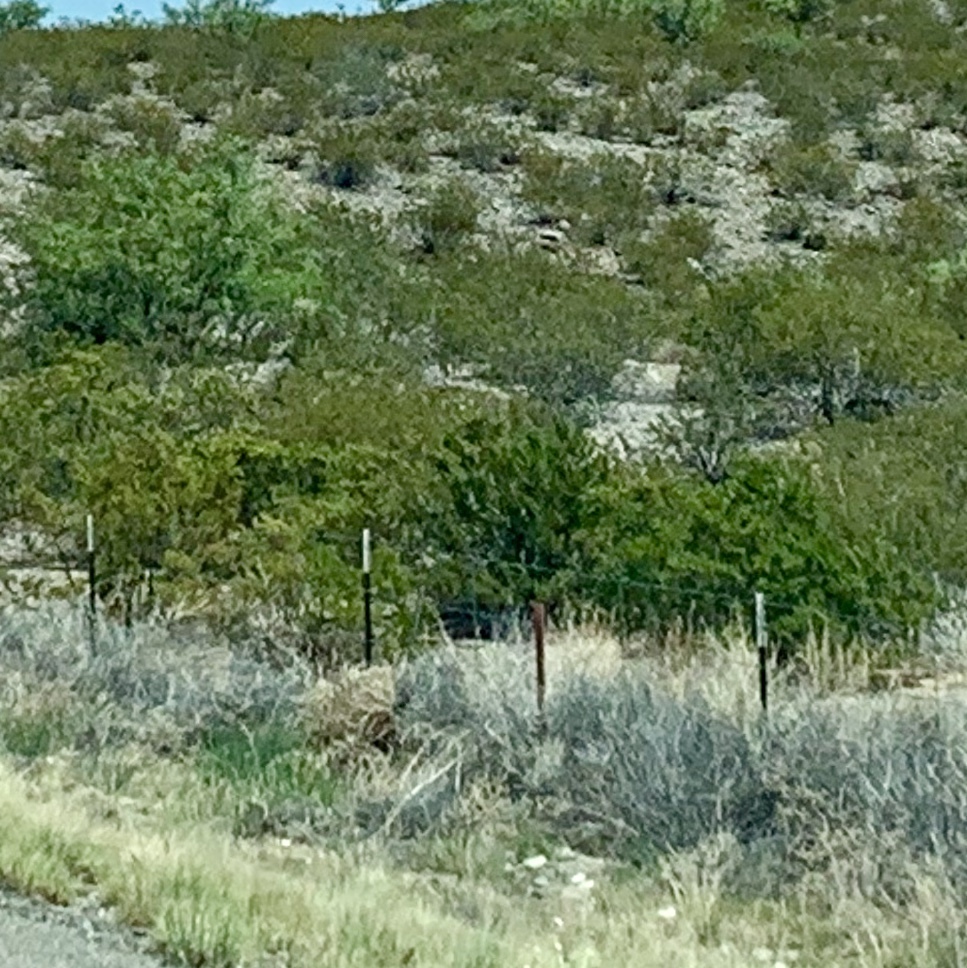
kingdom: Plantae
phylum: Tracheophyta
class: Magnoliopsida
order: Zygophyllales
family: Zygophyllaceae
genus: Larrea
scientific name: Larrea tridentata
